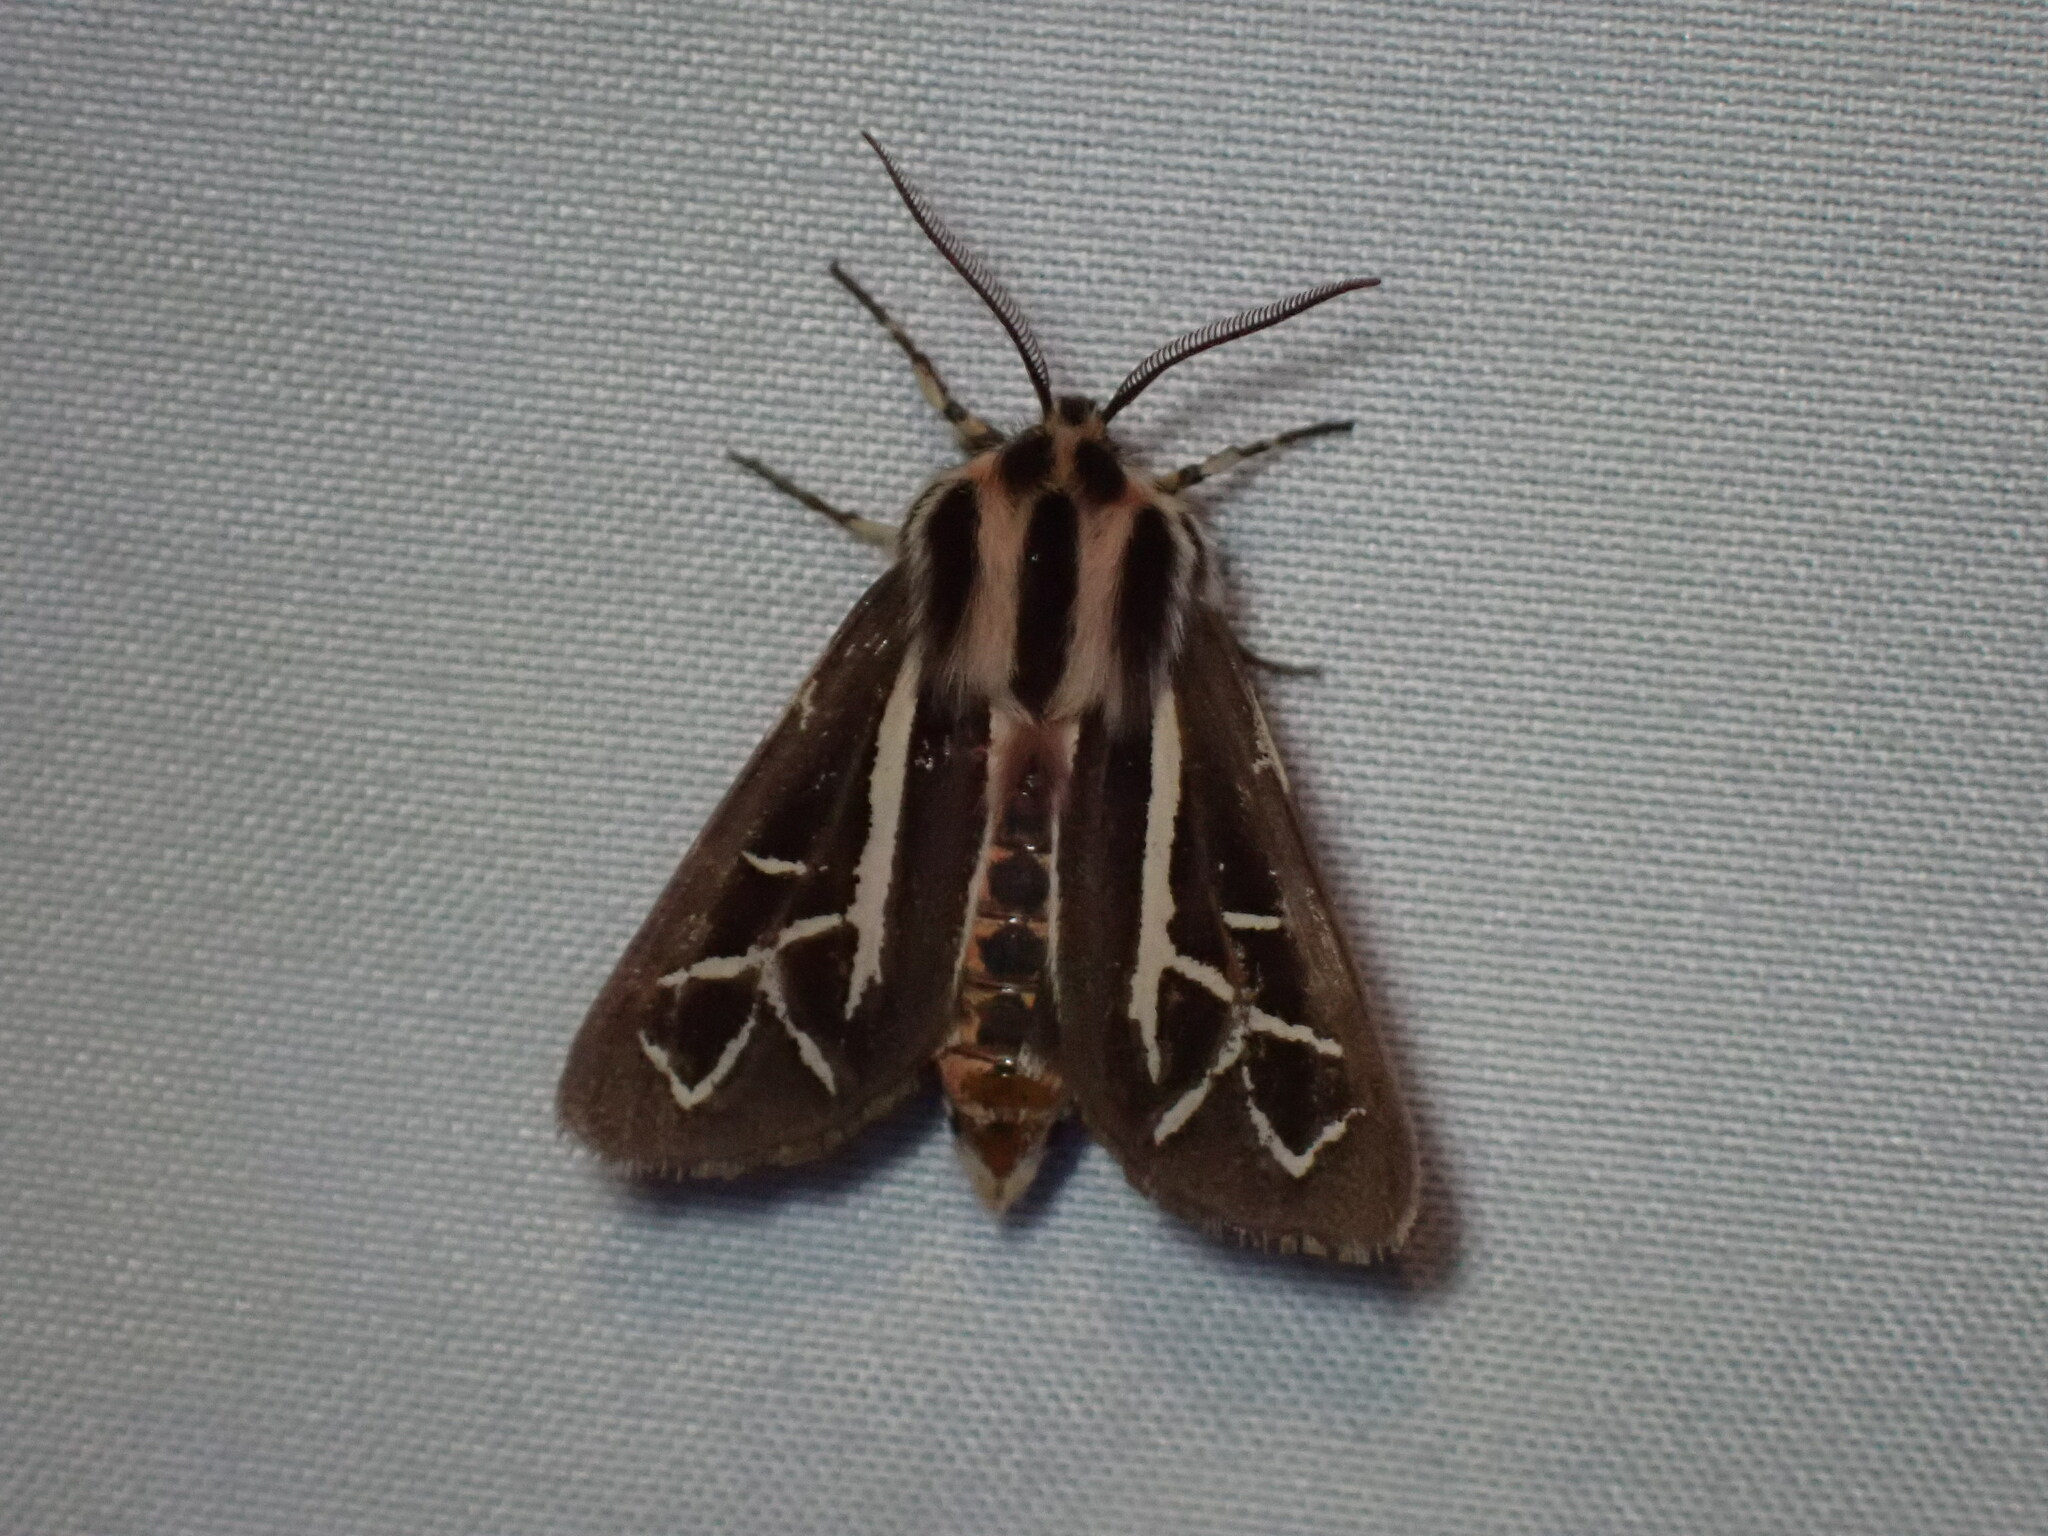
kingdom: Animalia
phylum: Arthropoda
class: Insecta
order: Lepidoptera
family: Erebidae
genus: Apantesis
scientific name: Apantesis
